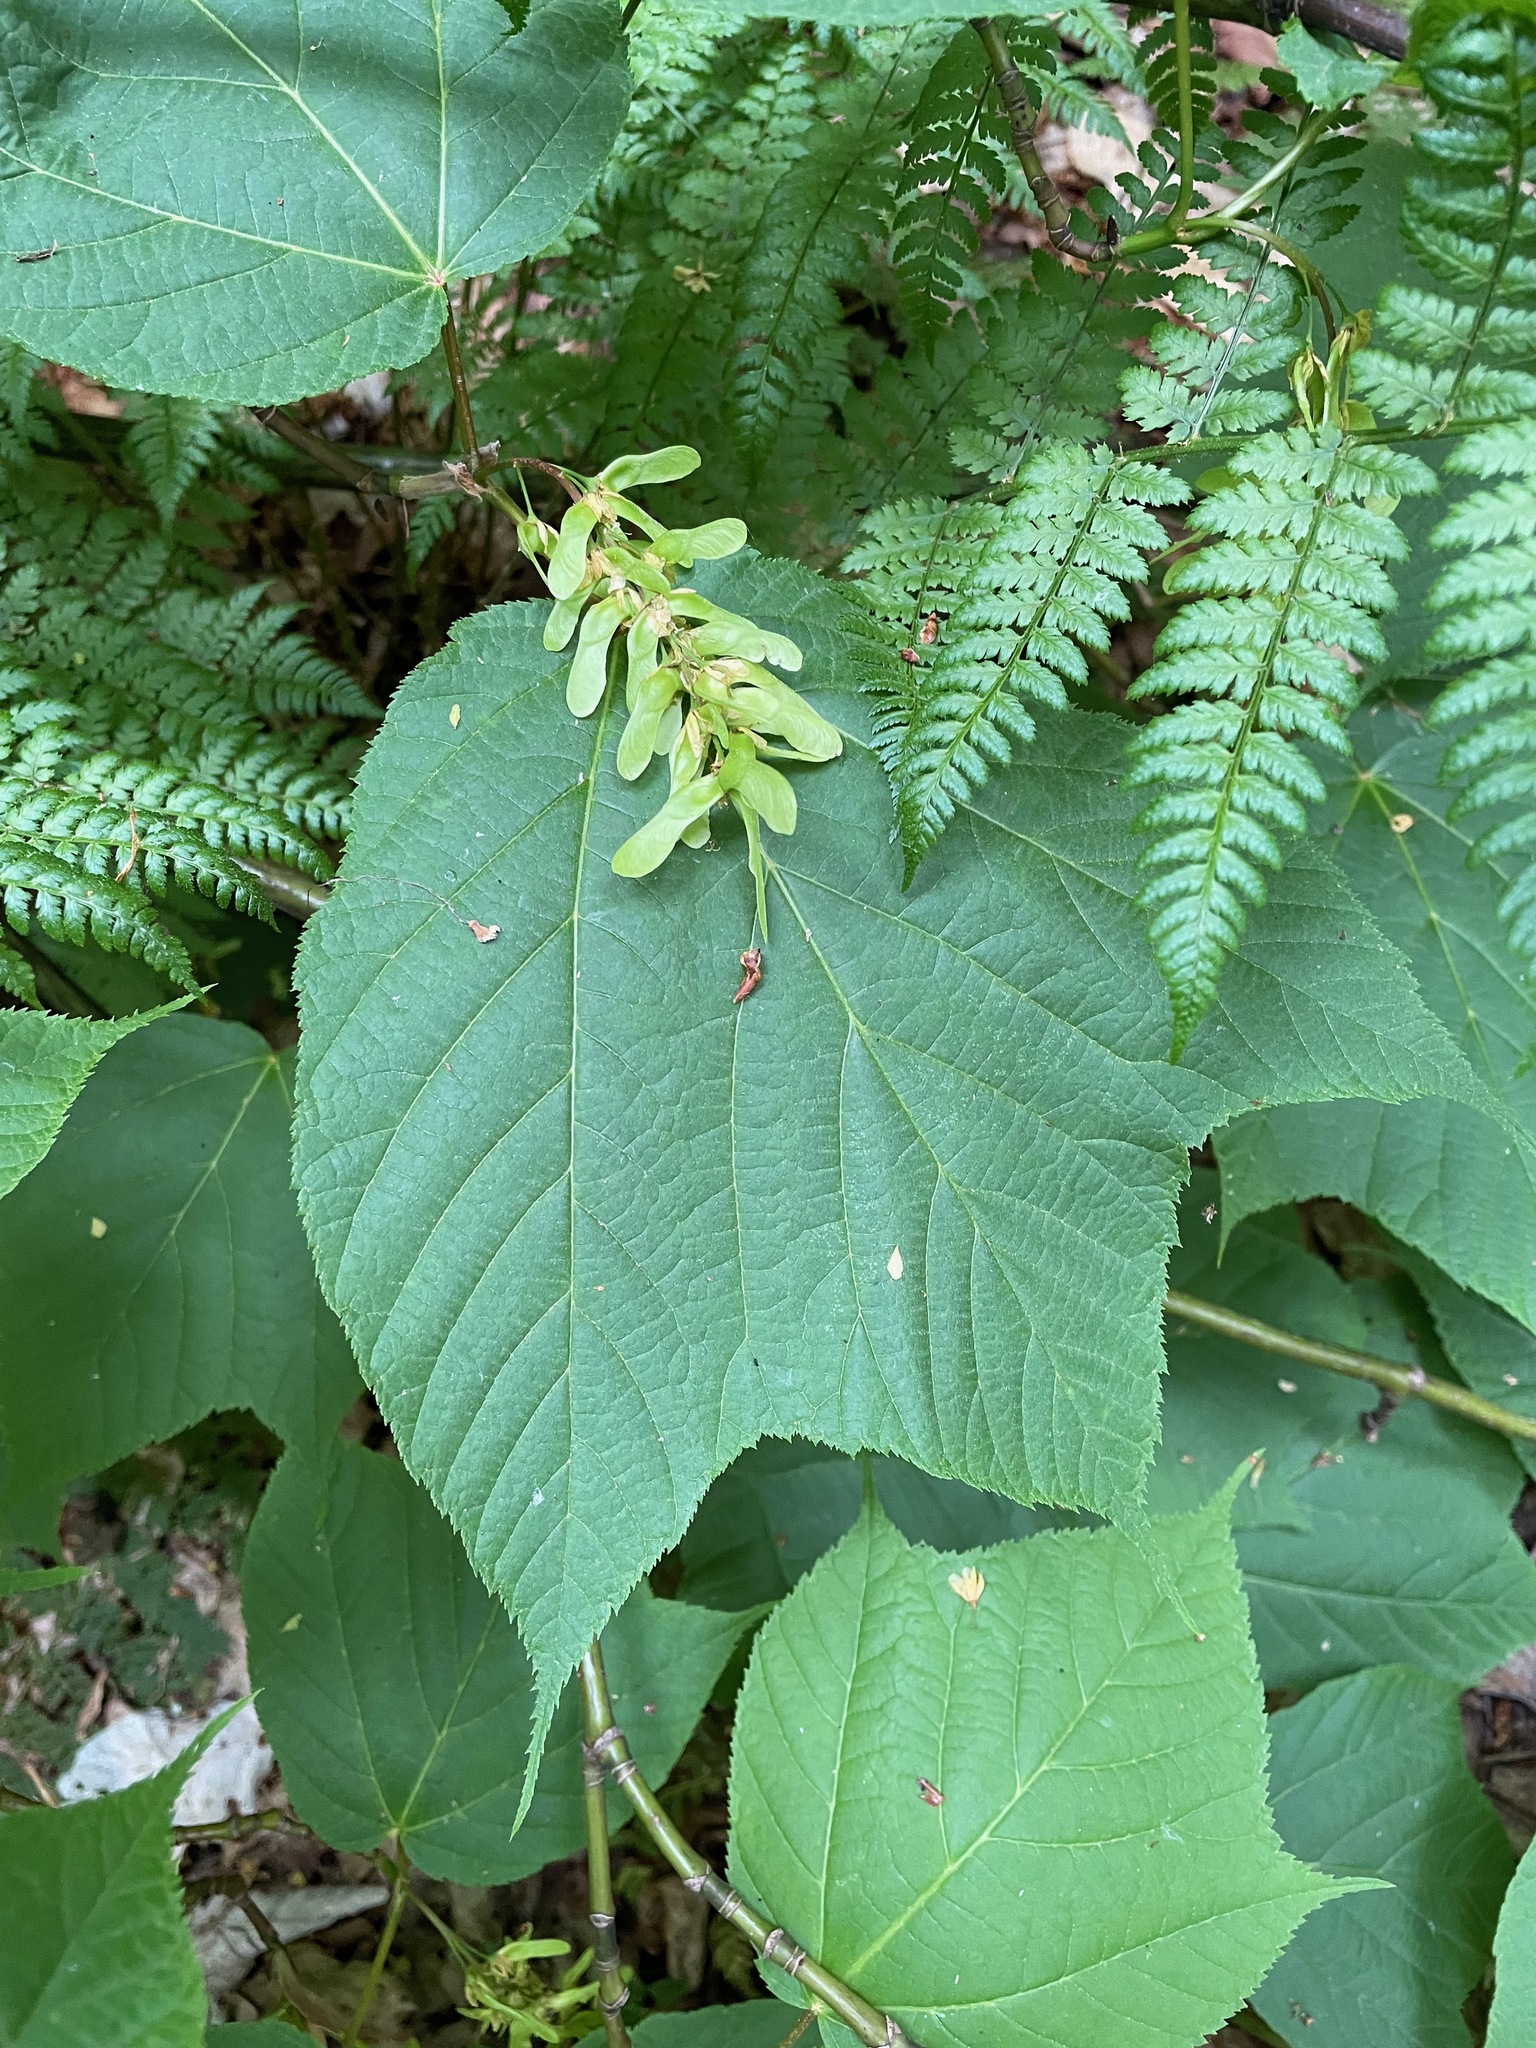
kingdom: Plantae
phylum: Tracheophyta
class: Magnoliopsida
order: Sapindales
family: Sapindaceae
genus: Acer
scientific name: Acer pensylvanicum
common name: Moosewood
